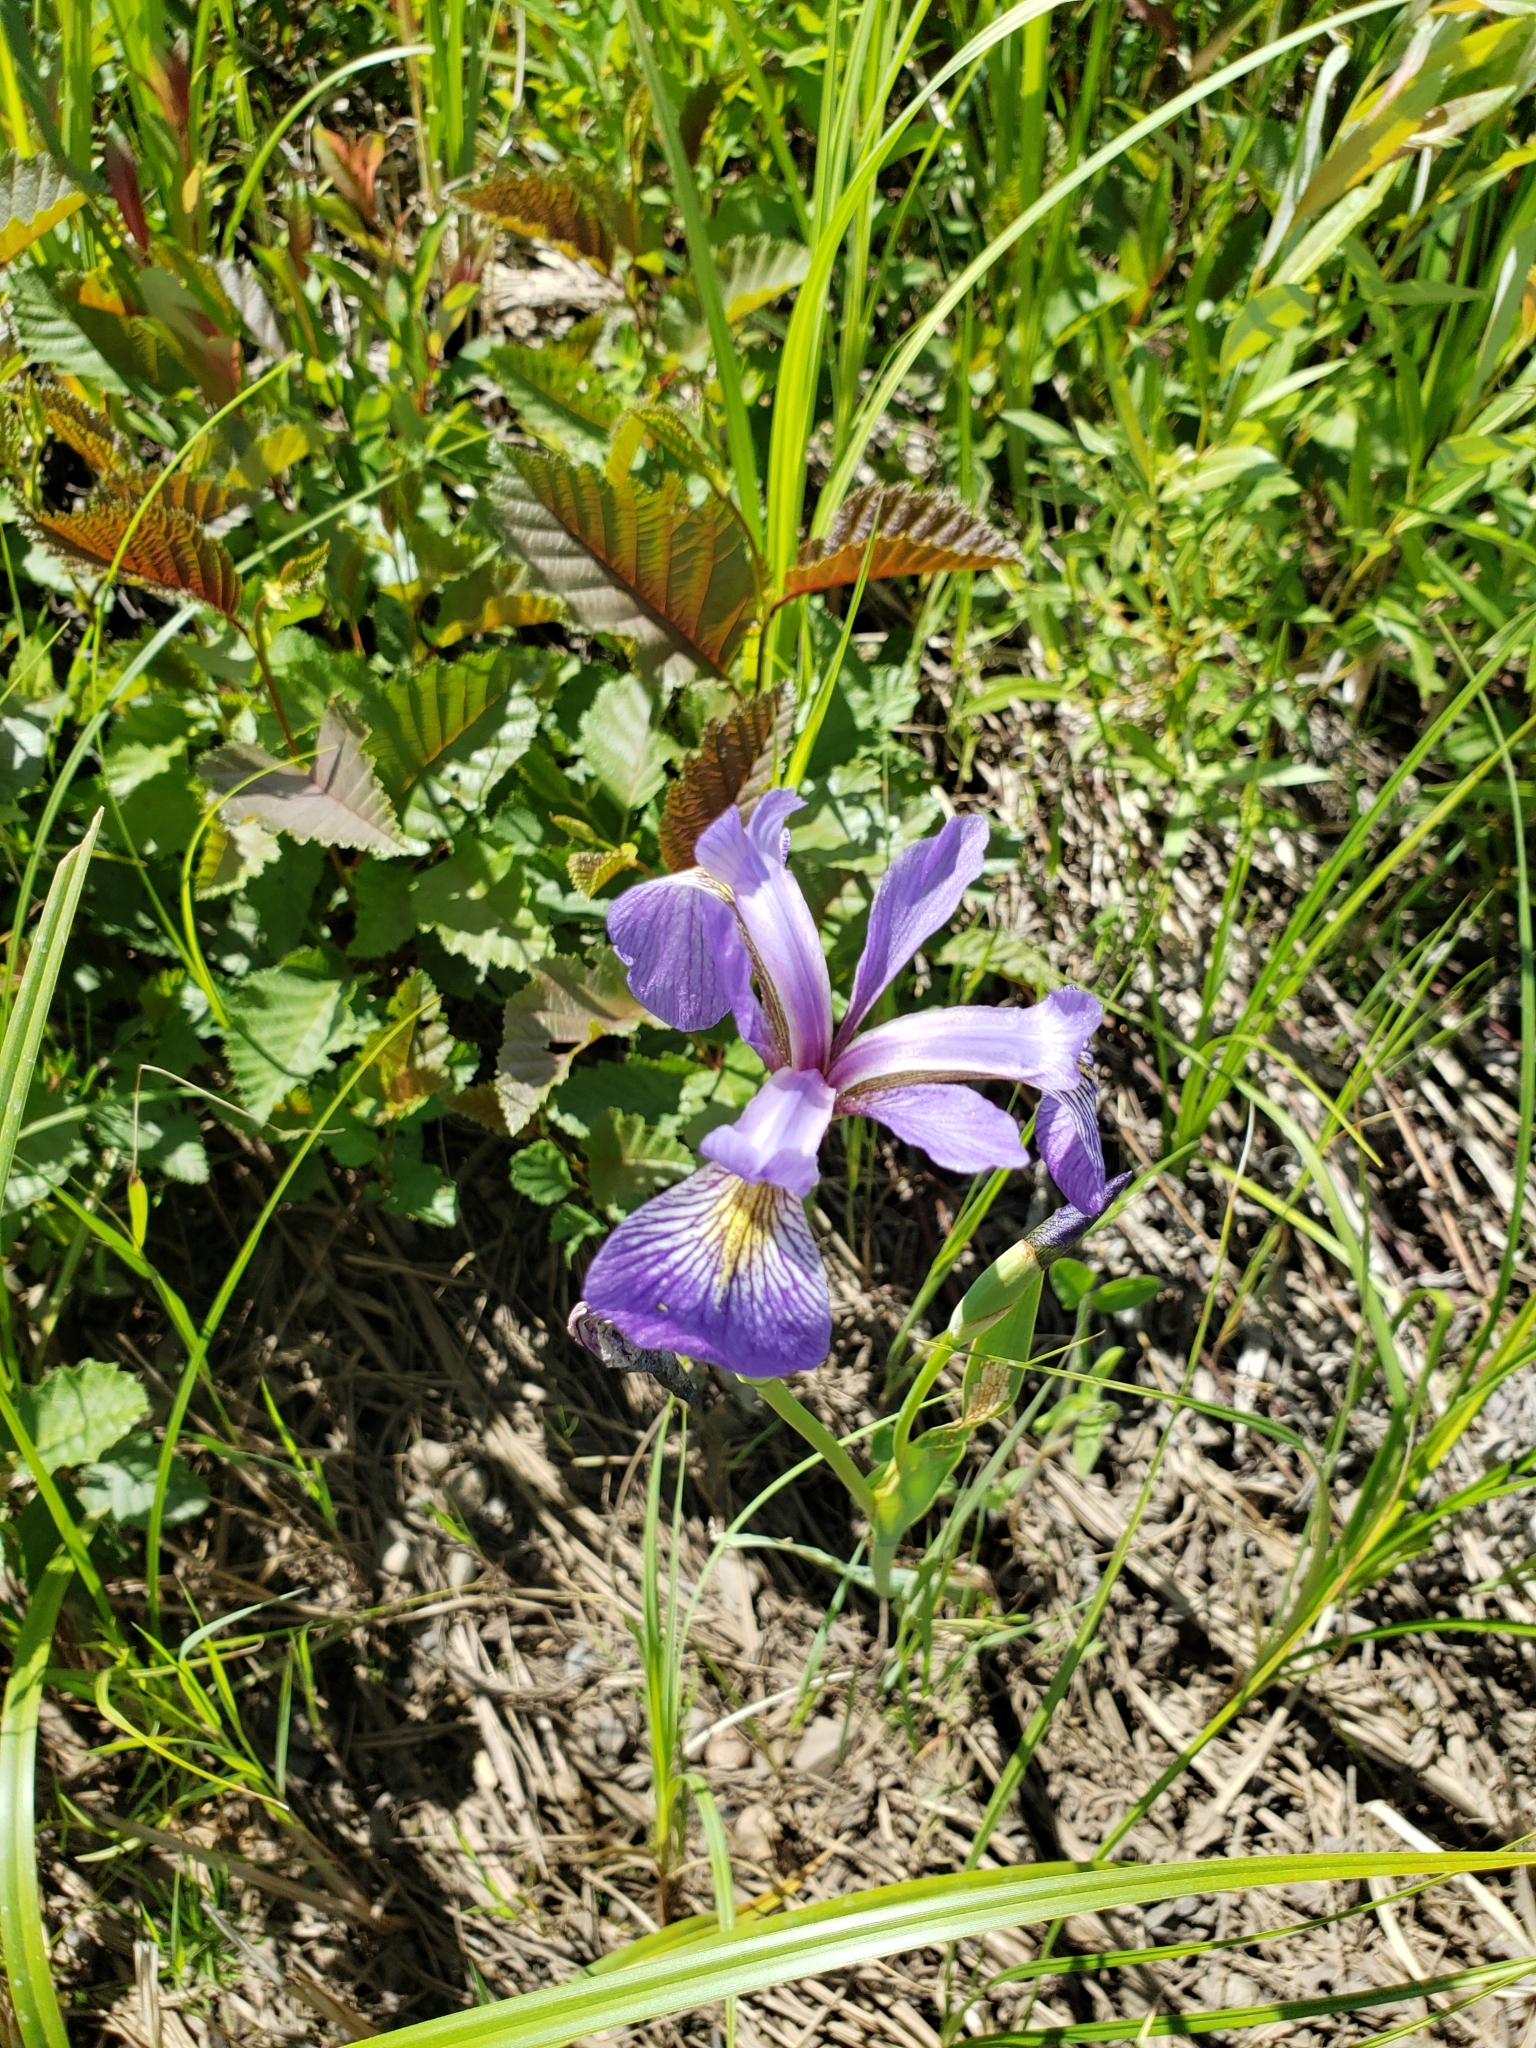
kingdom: Plantae
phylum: Tracheophyta
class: Liliopsida
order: Asparagales
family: Iridaceae
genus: Iris
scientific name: Iris versicolor
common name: Purple iris
